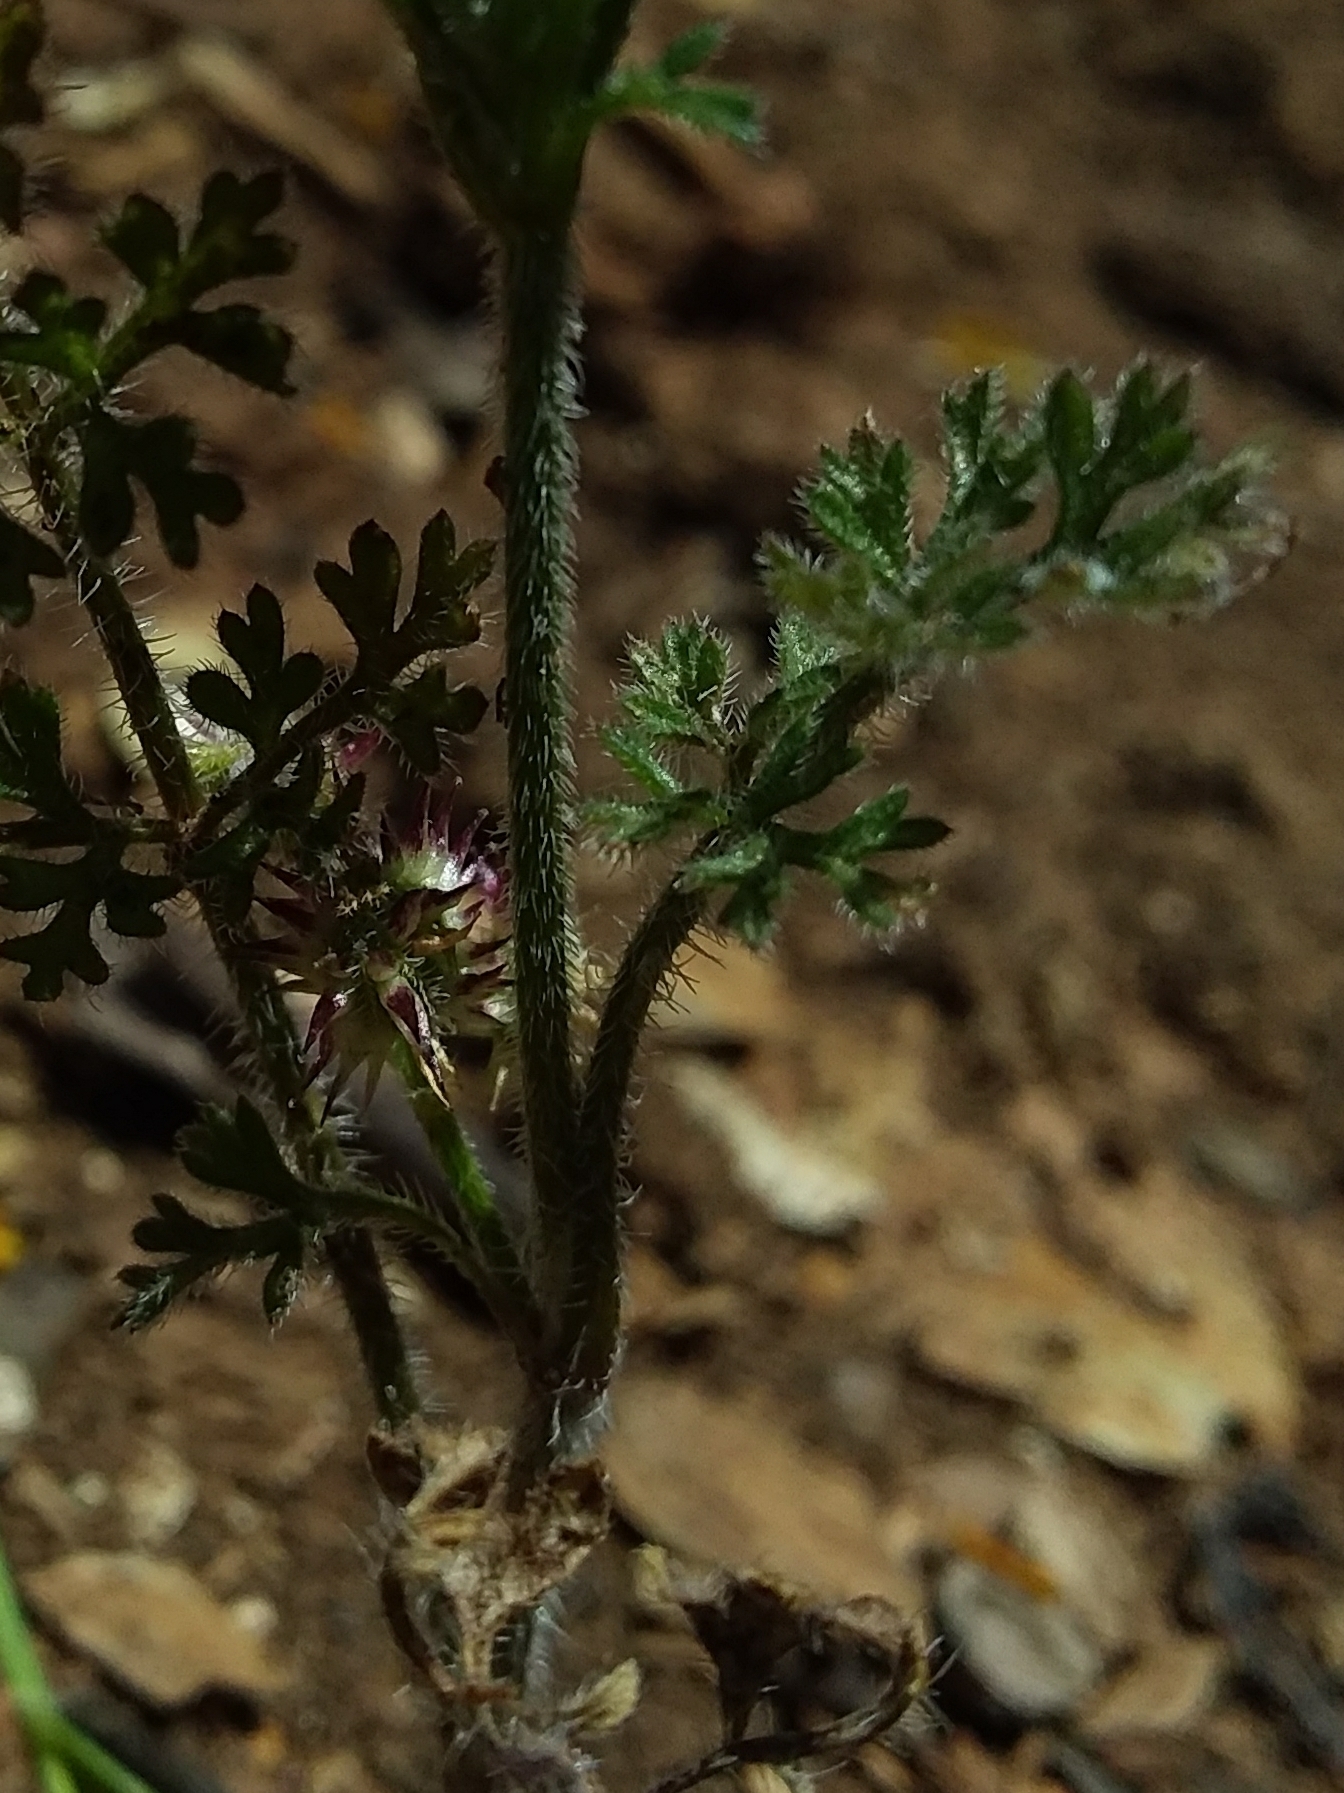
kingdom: Plantae
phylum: Tracheophyta
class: Magnoliopsida
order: Apiales
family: Apiaceae
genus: Daucus
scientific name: Daucus glochidiatus
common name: Australian carrot
